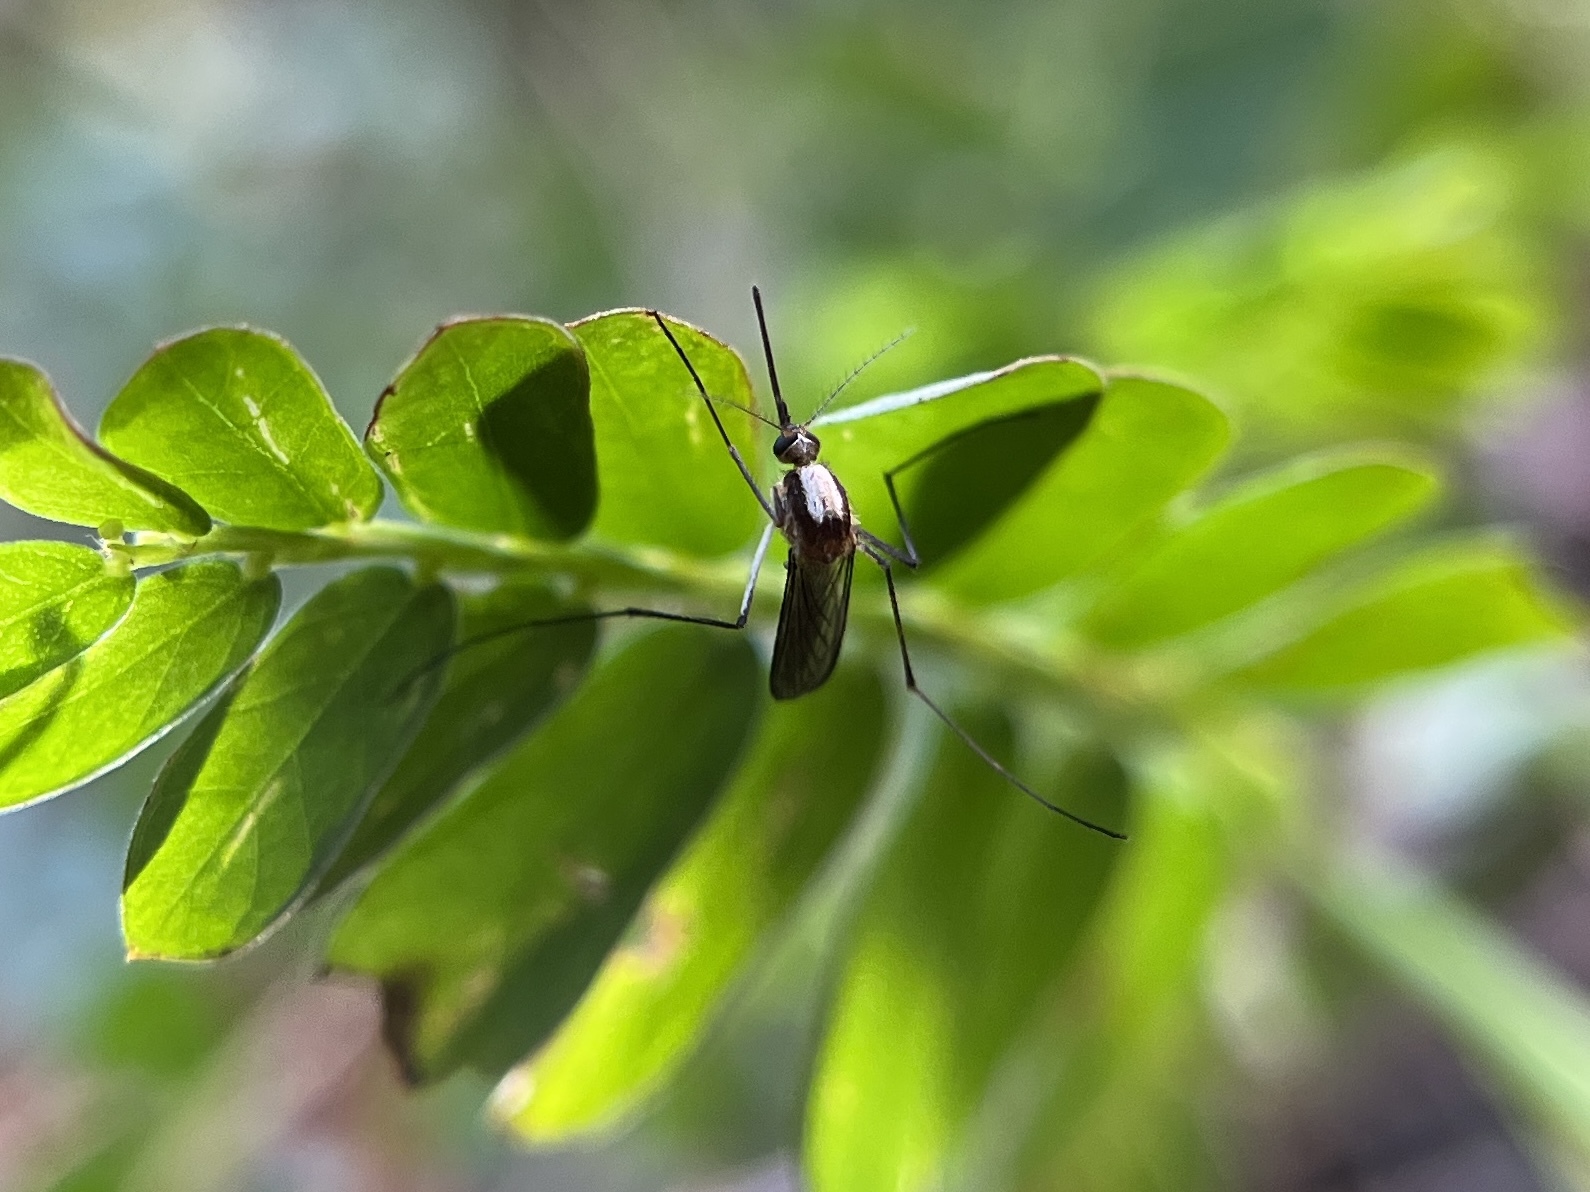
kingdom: Animalia
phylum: Arthropoda
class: Insecta
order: Diptera
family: Culicidae
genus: Aedes
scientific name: Aedes infirmatus
